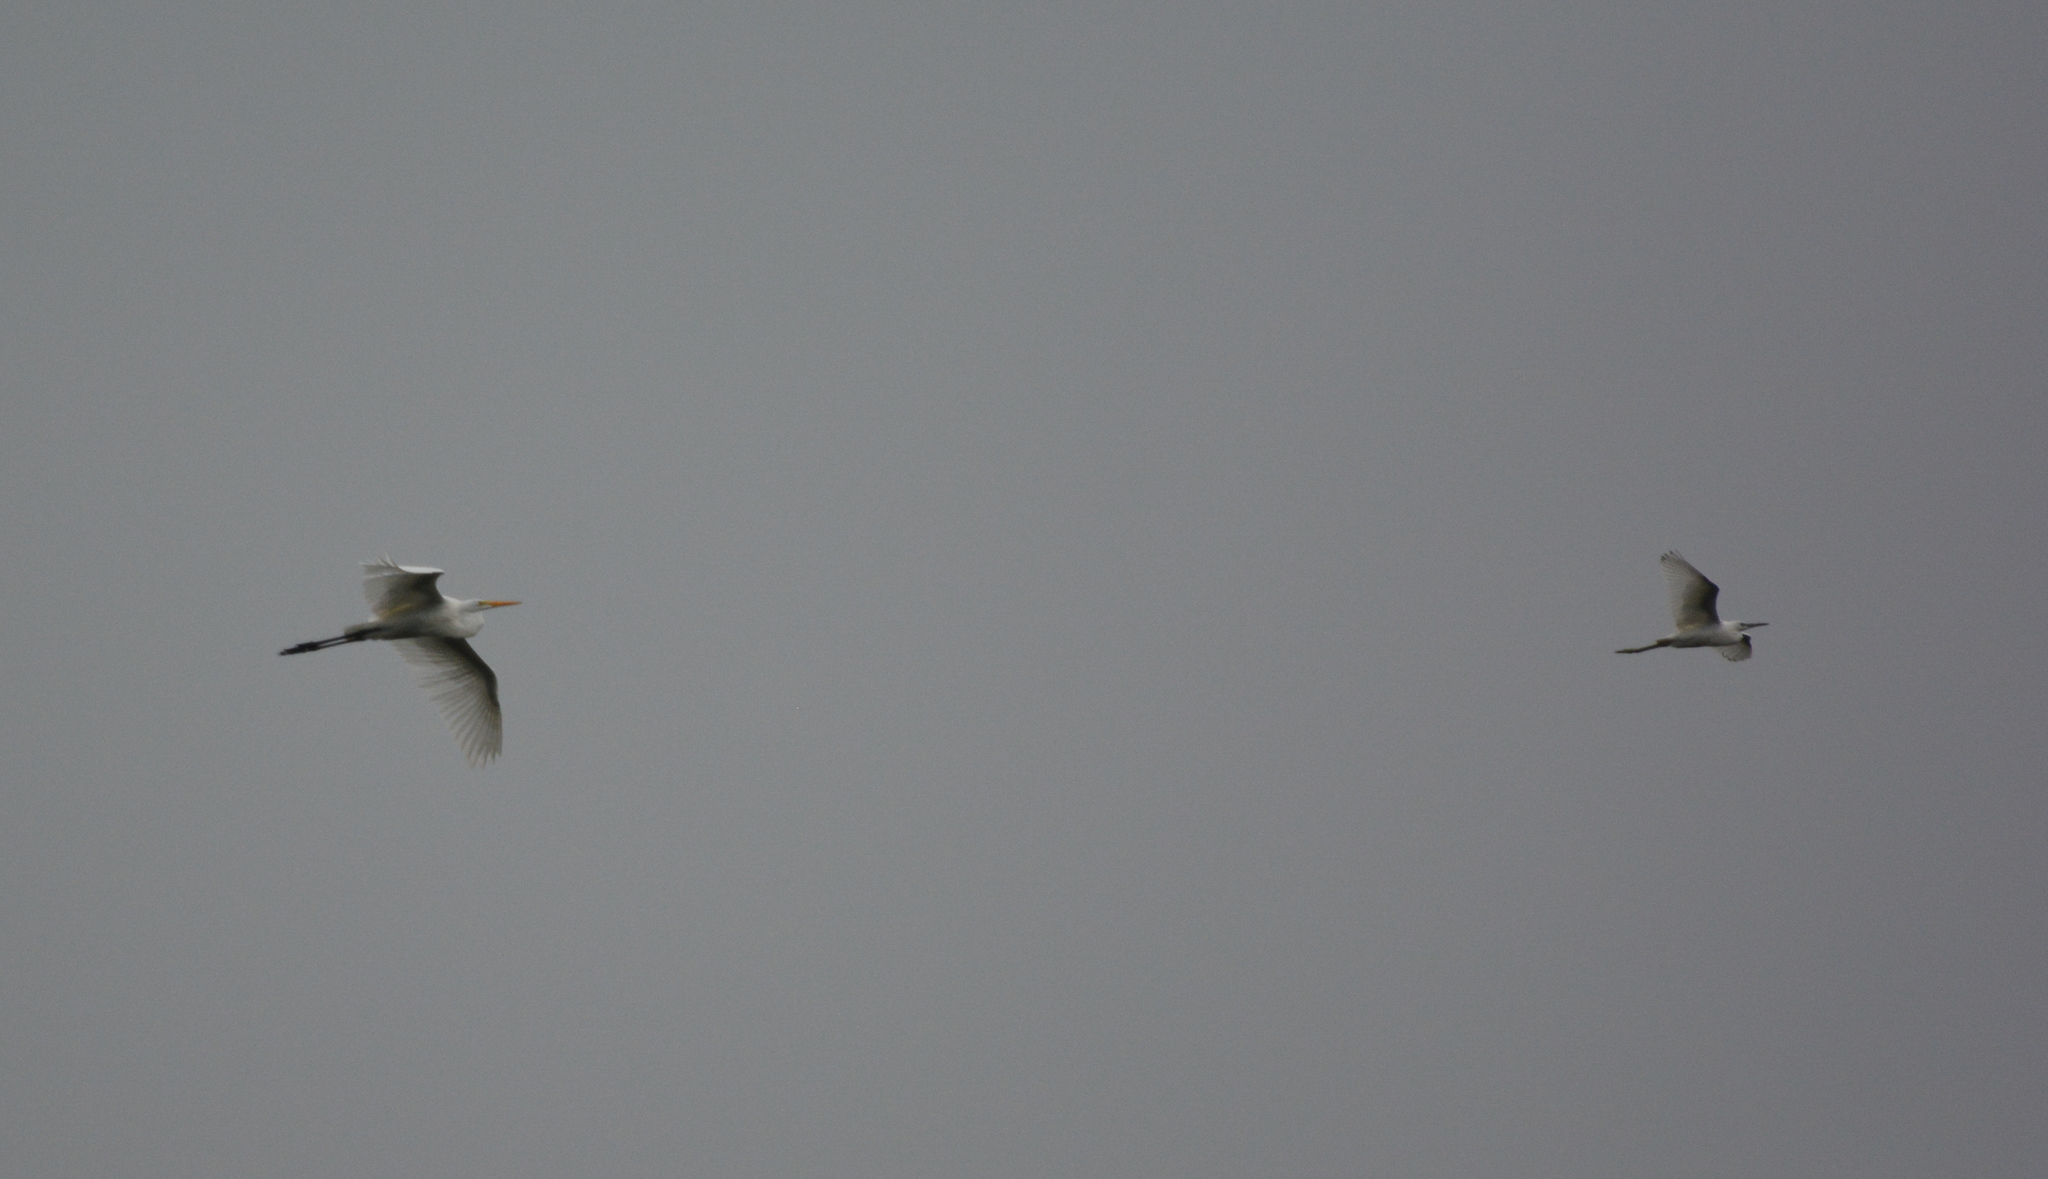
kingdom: Animalia
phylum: Chordata
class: Aves
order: Pelecaniformes
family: Ardeidae
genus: Ardea
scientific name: Ardea alba
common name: Great egret
